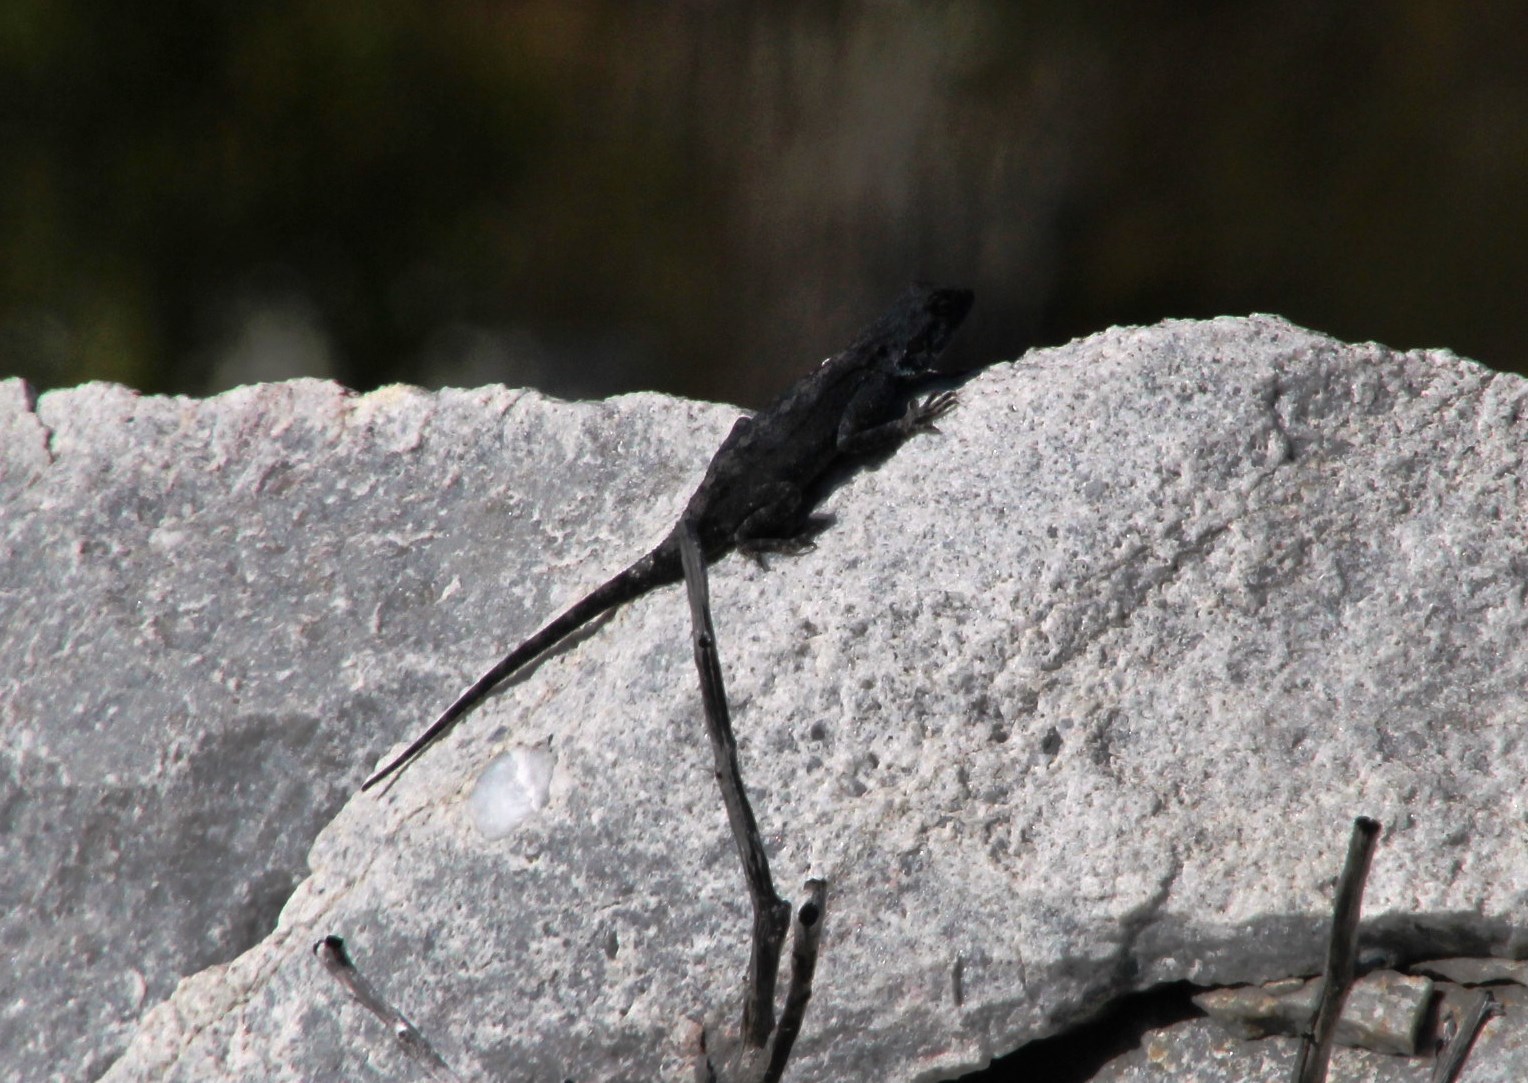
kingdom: Animalia
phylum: Chordata
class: Squamata
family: Agamidae
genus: Agama
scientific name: Agama atra
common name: Southern african rock agama
